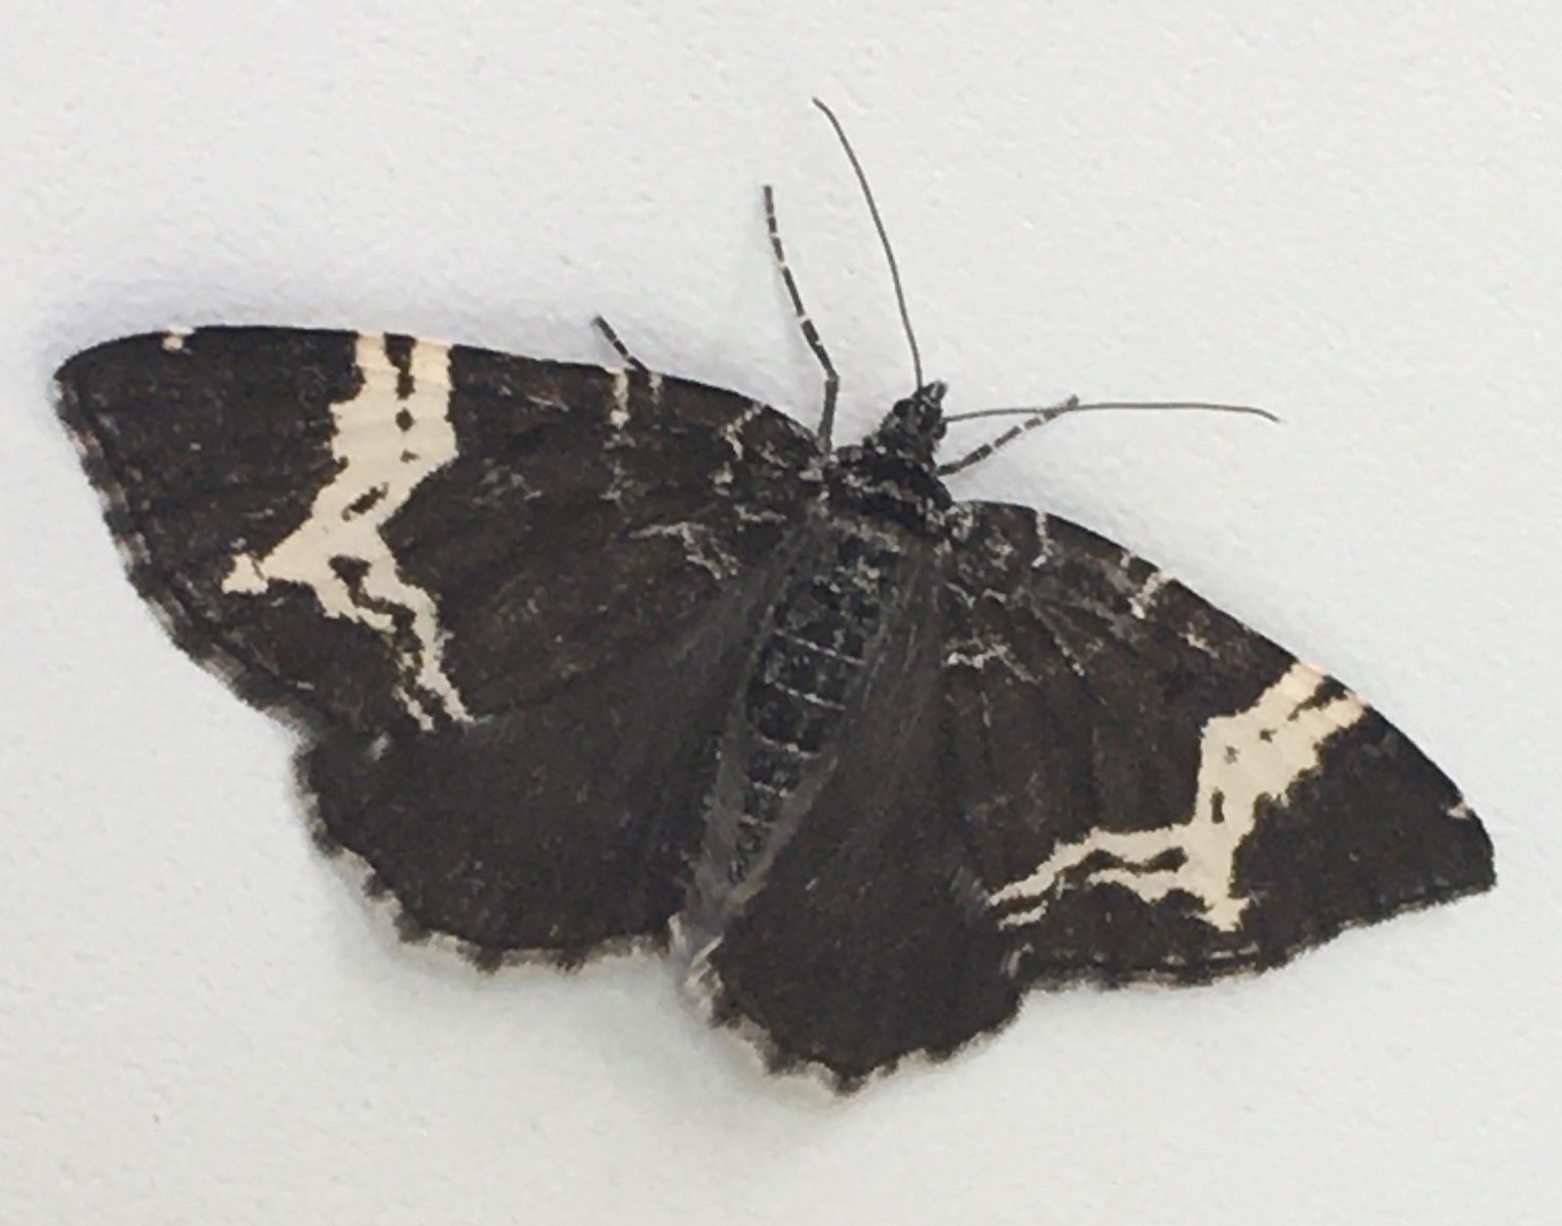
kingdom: Animalia
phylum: Arthropoda
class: Insecta
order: Lepidoptera
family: Geometridae
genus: Rheumaptera
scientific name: Rheumaptera
